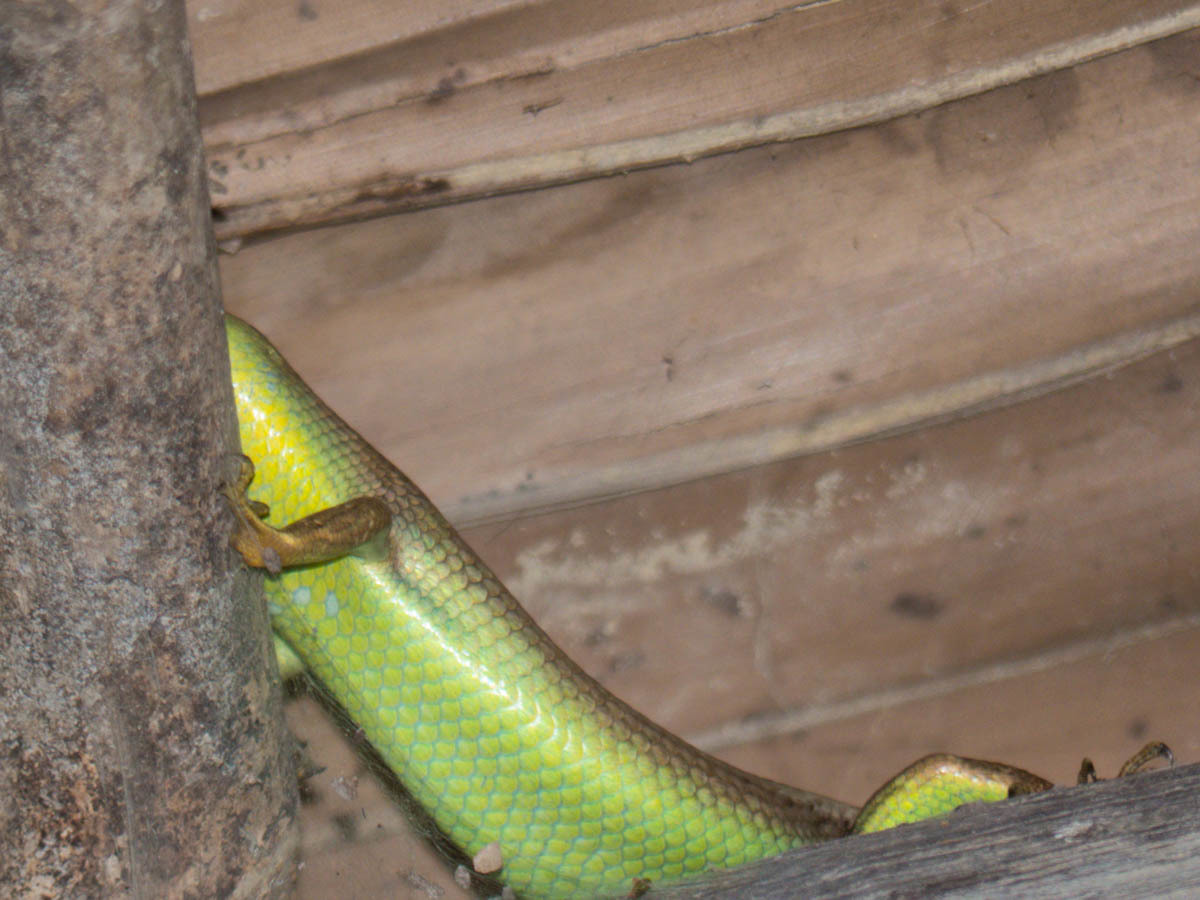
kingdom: Animalia
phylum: Chordata
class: Squamata
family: Scincidae
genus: Dasia
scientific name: Dasia olivacea
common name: Olive dasia
